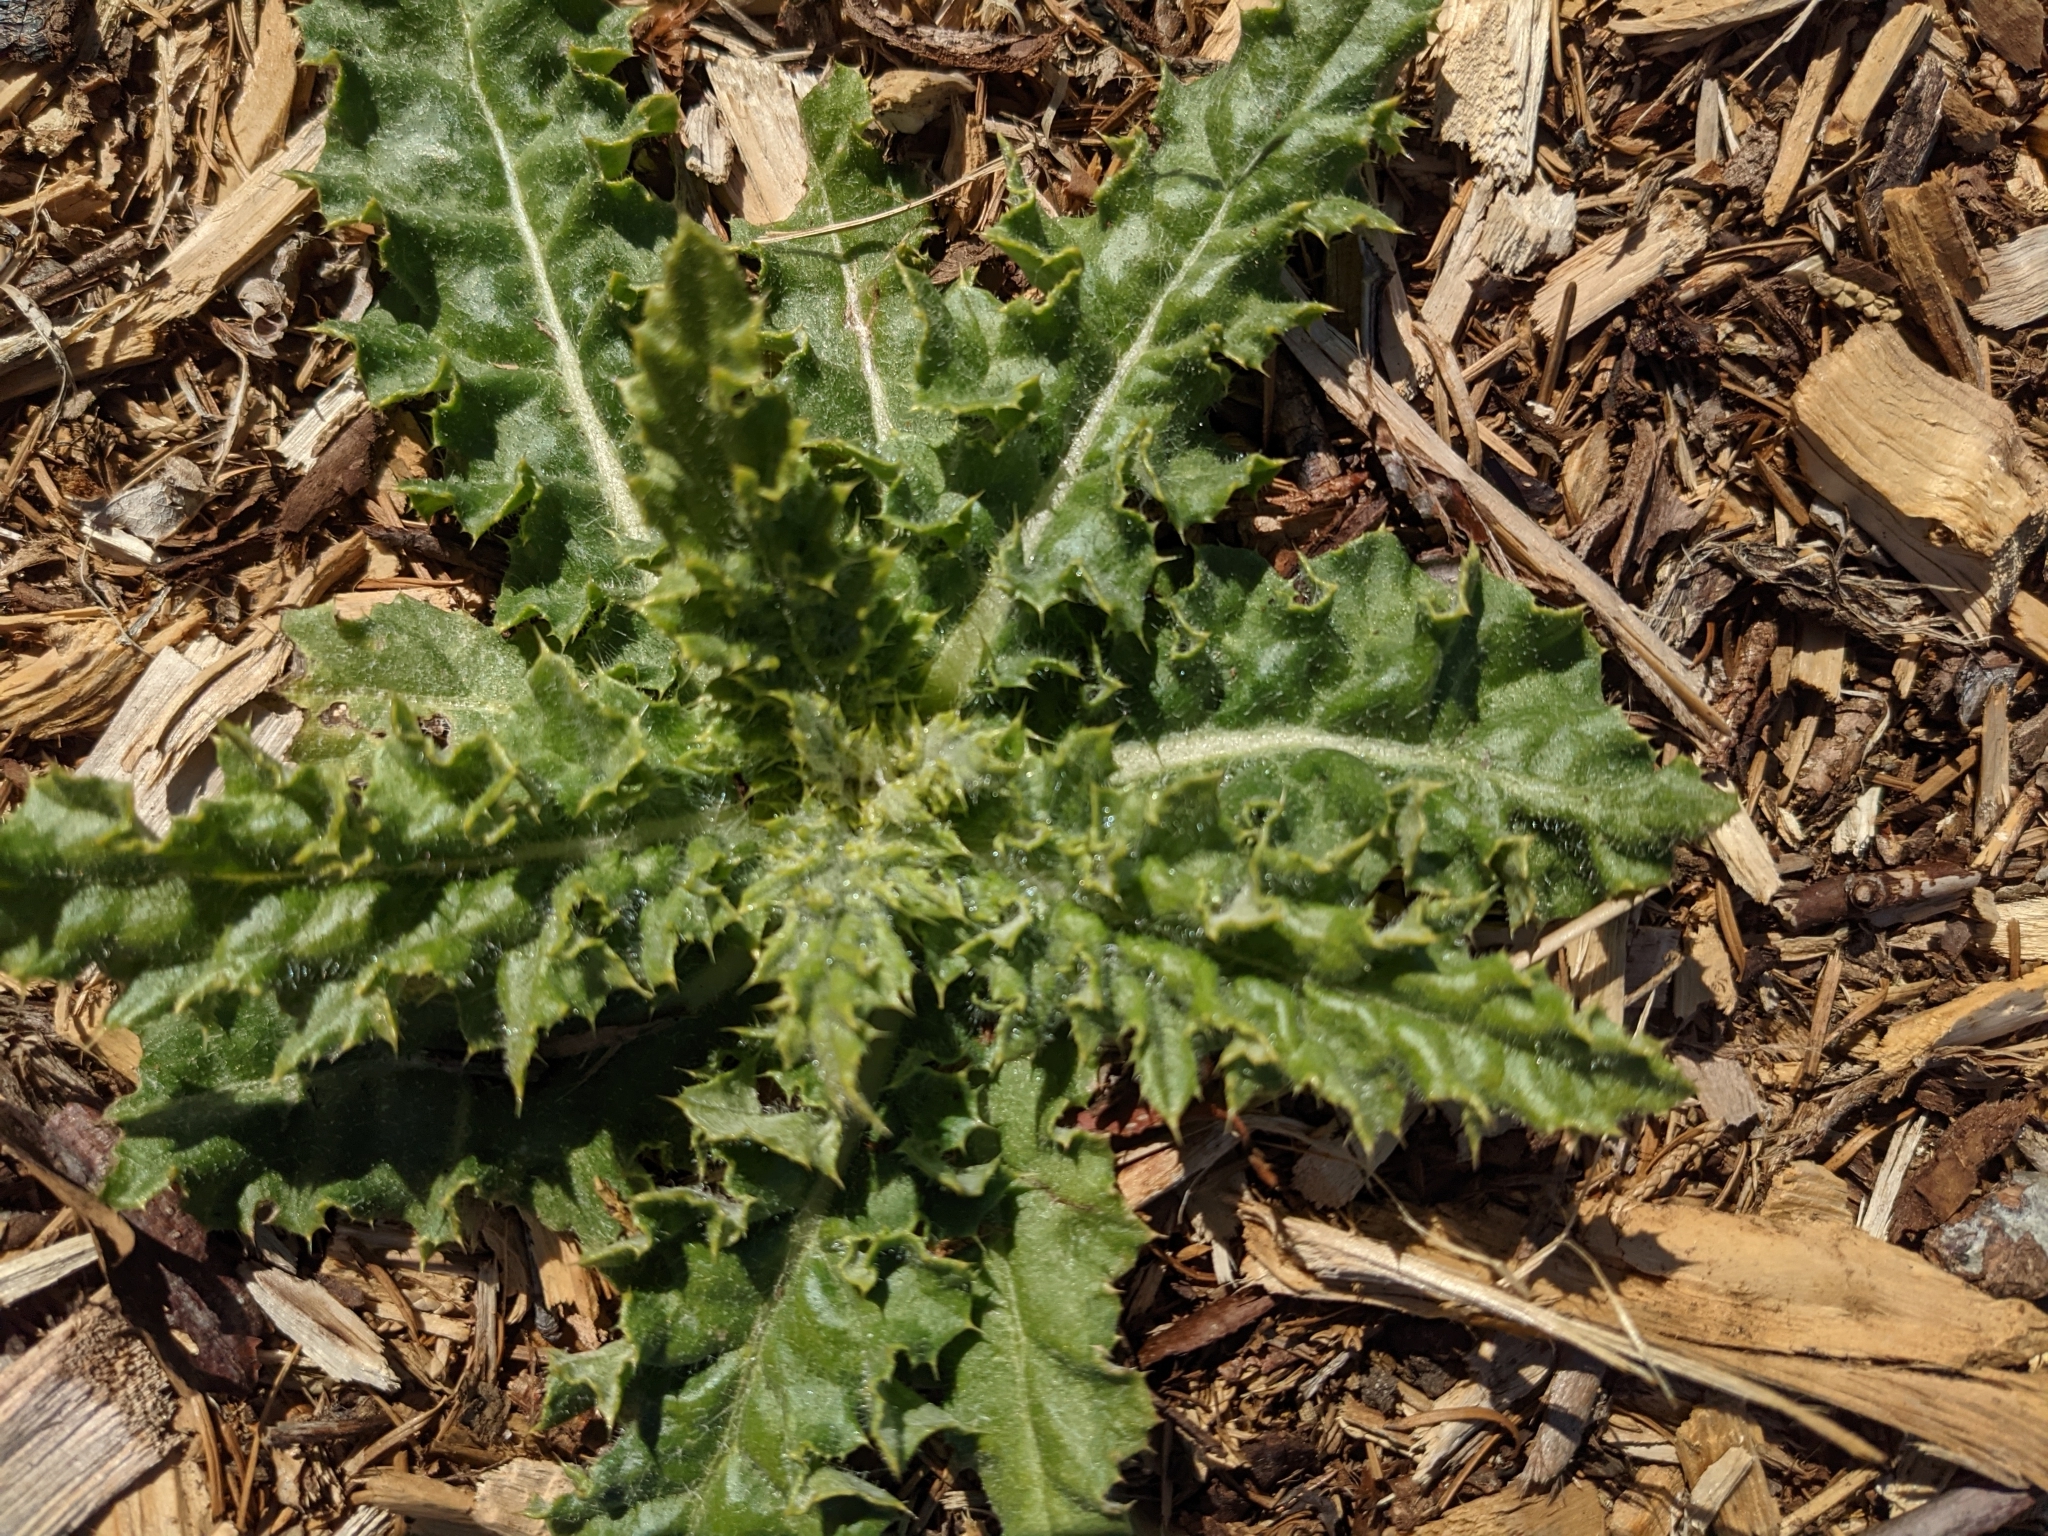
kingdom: Plantae
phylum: Tracheophyta
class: Magnoliopsida
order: Asterales
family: Asteraceae
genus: Cirsium
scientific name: Cirsium arvense
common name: Creeping thistle
